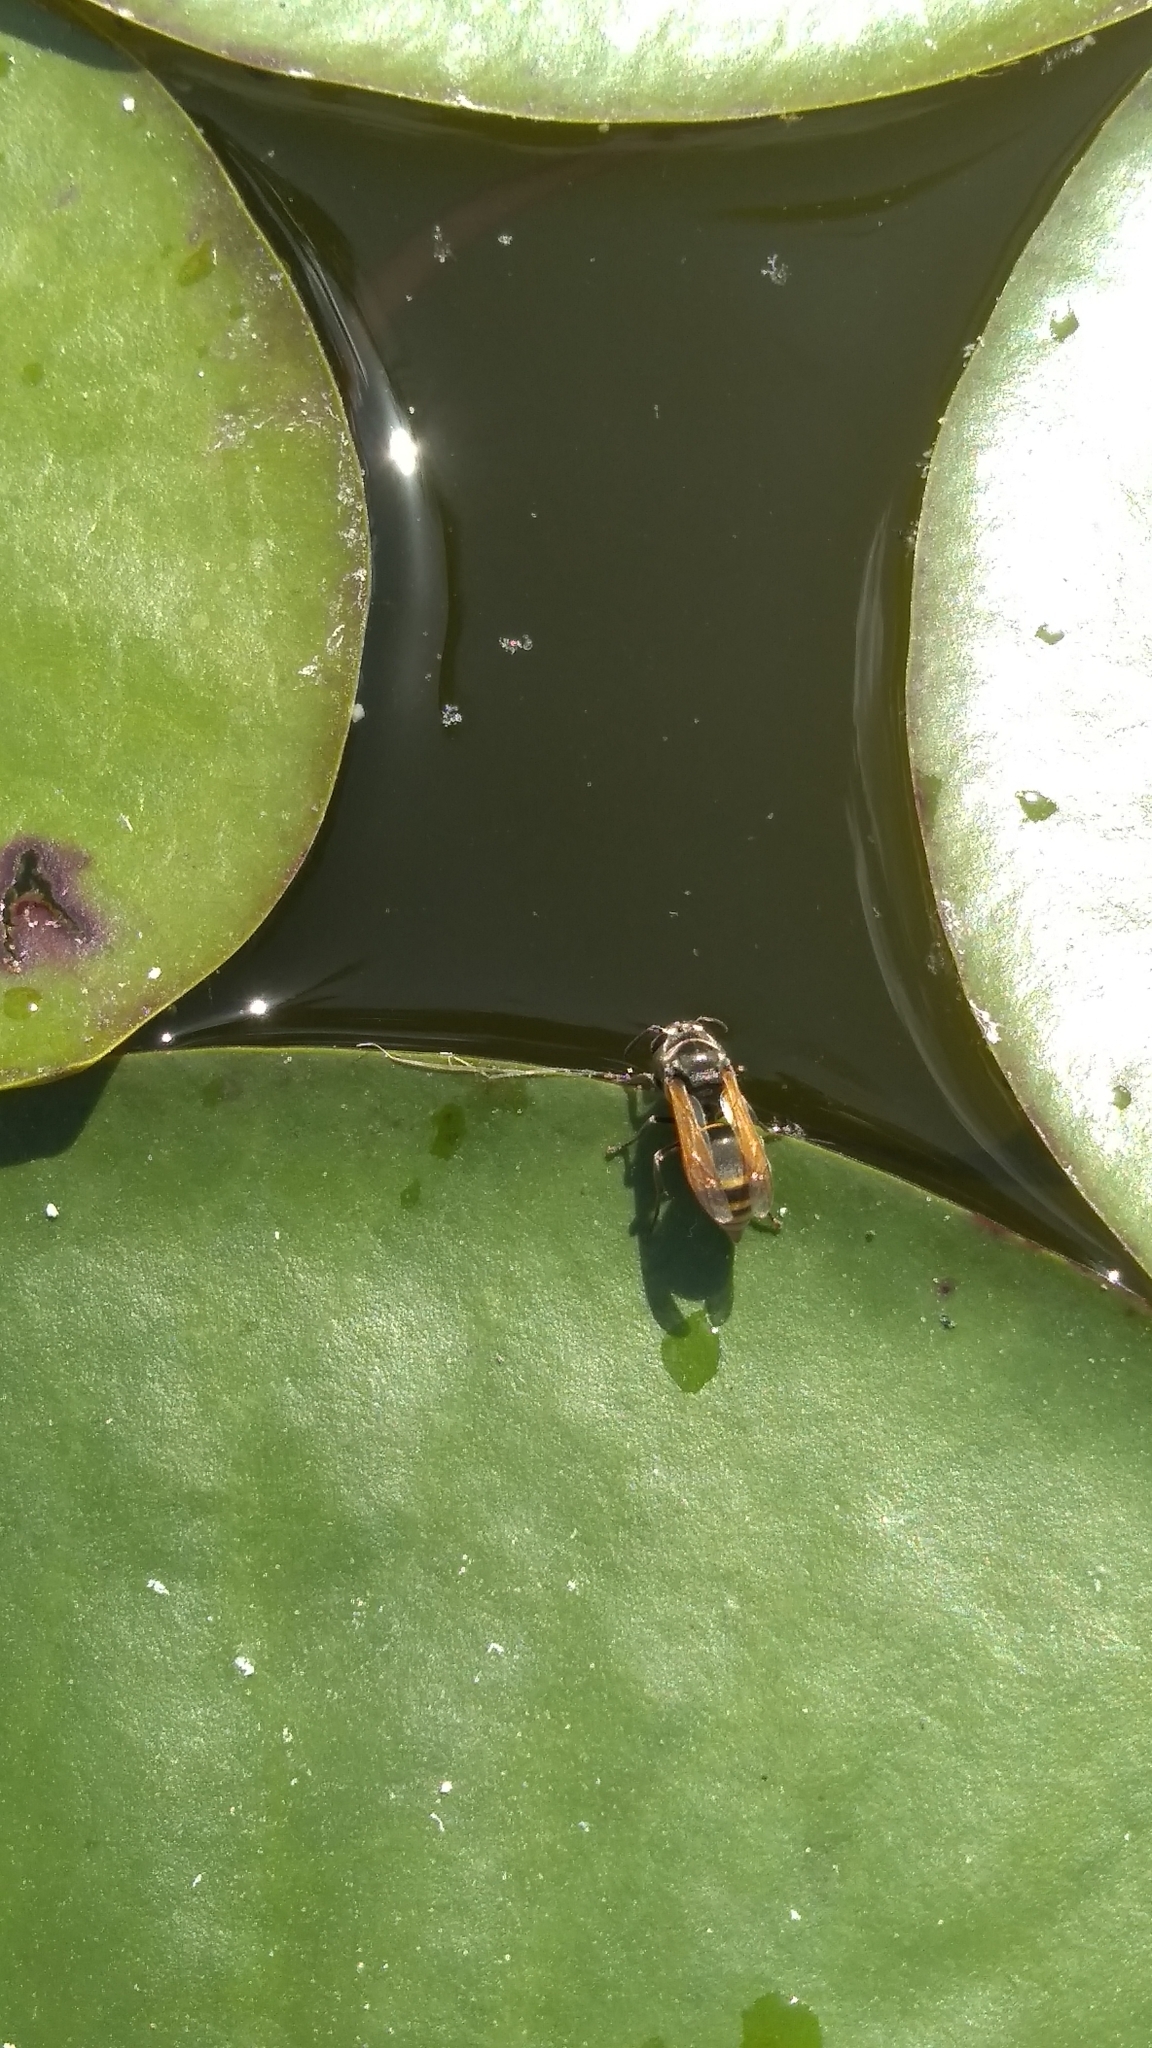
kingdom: Animalia
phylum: Arthropoda
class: Insecta
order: Hymenoptera
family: Vespidae
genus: Brachygastra
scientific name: Brachygastra mellifica
